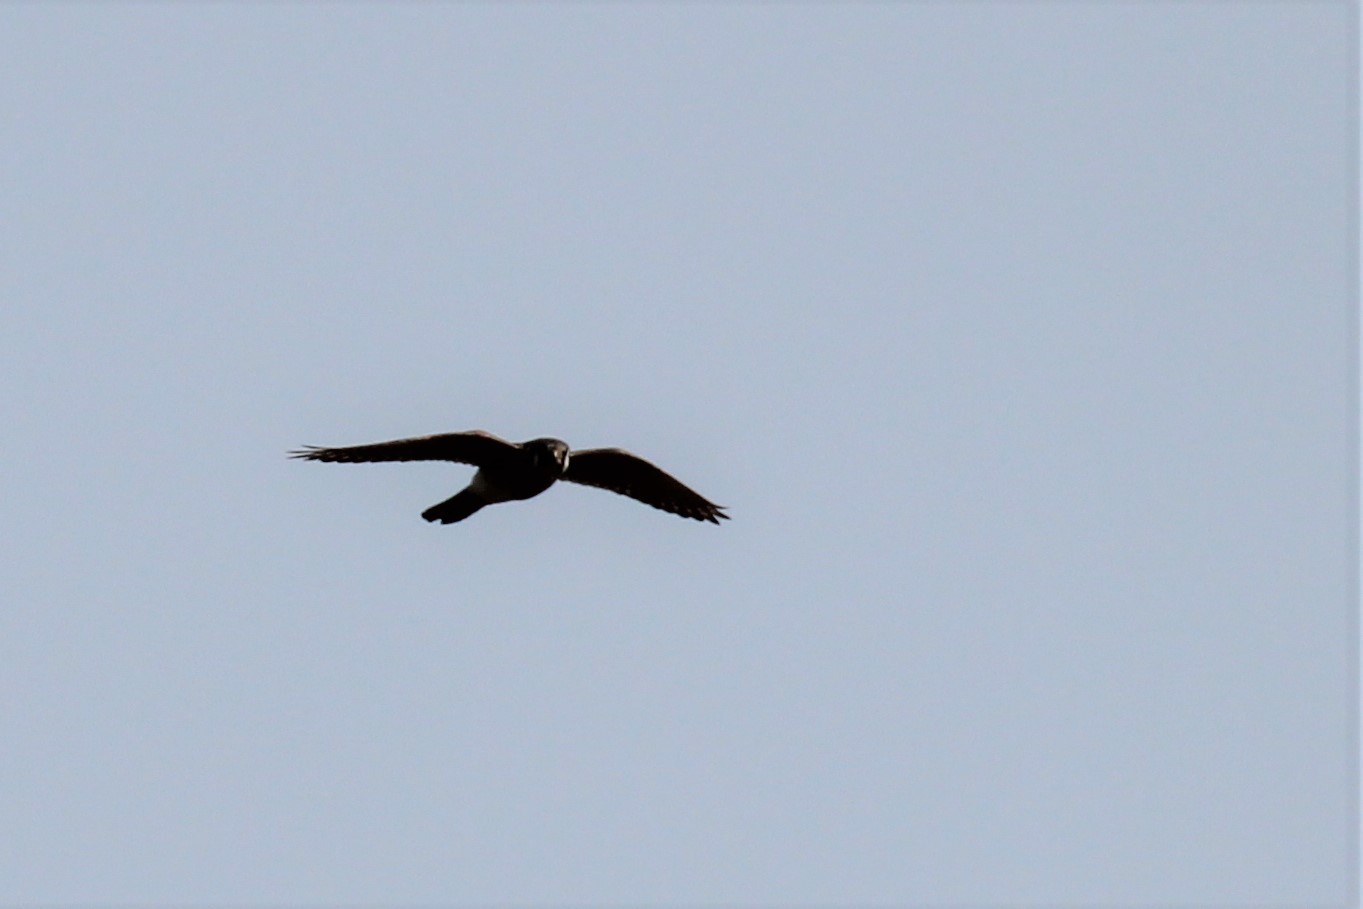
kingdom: Animalia
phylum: Chordata
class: Aves
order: Falconiformes
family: Falconidae
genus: Falco
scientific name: Falco sparverius
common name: American kestrel
